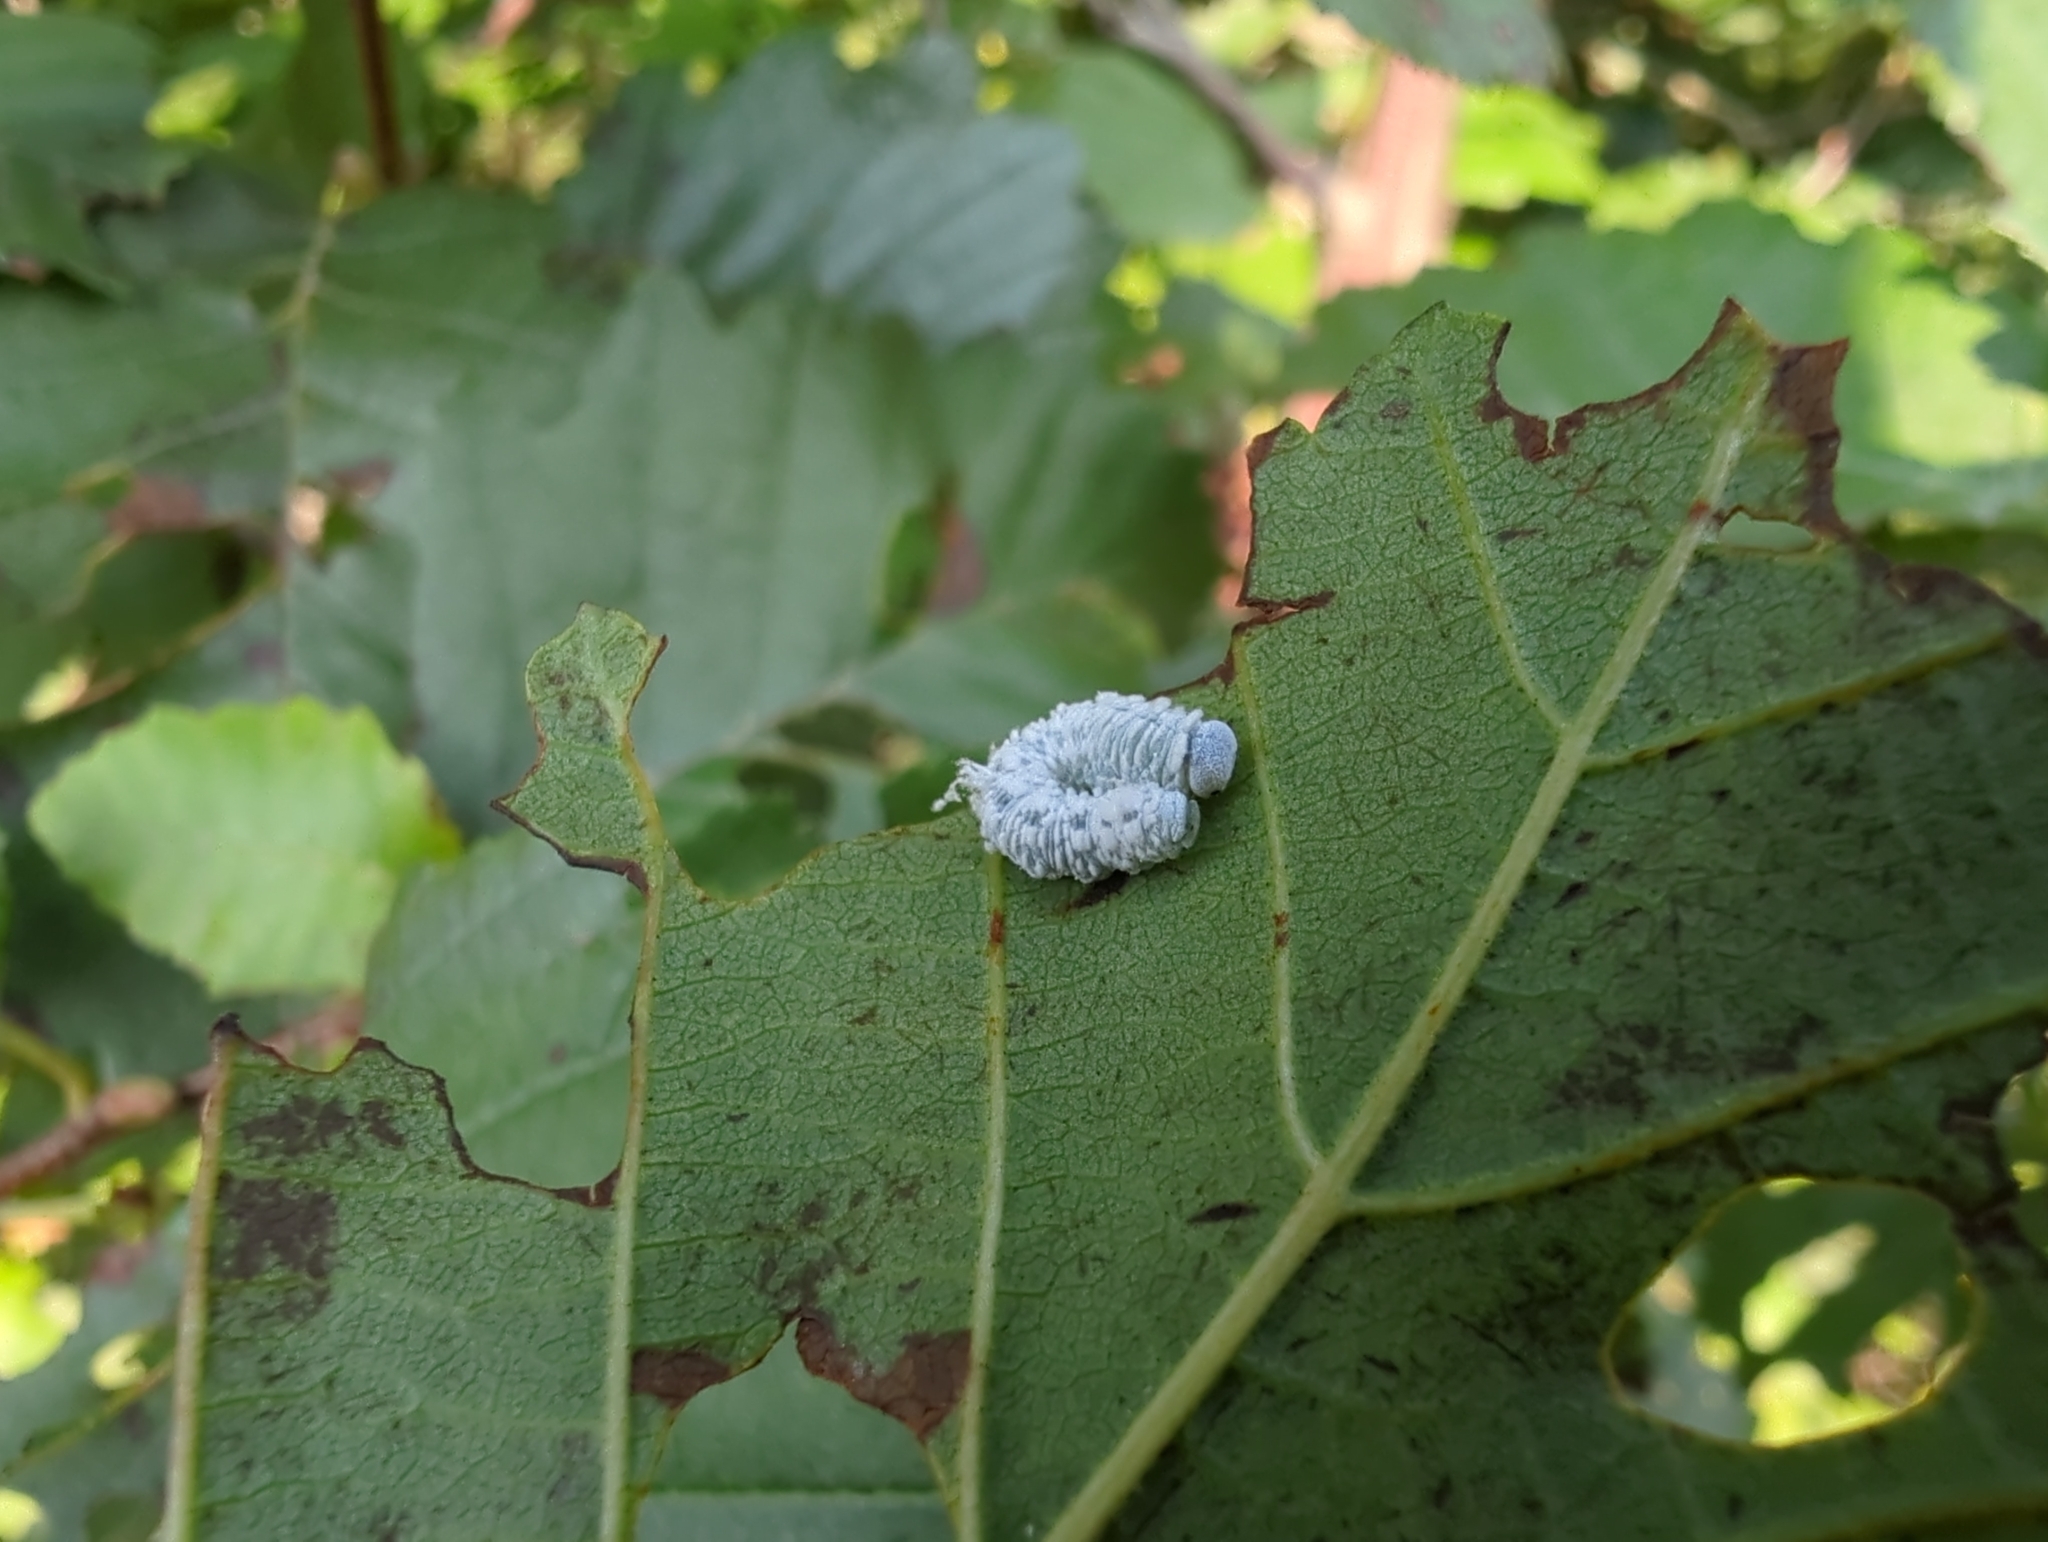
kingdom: Animalia
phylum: Arthropoda
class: Insecta
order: Hymenoptera
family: Tenthredinidae
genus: Eriocampa
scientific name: Eriocampa ovata
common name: Alder wooly sawfly
